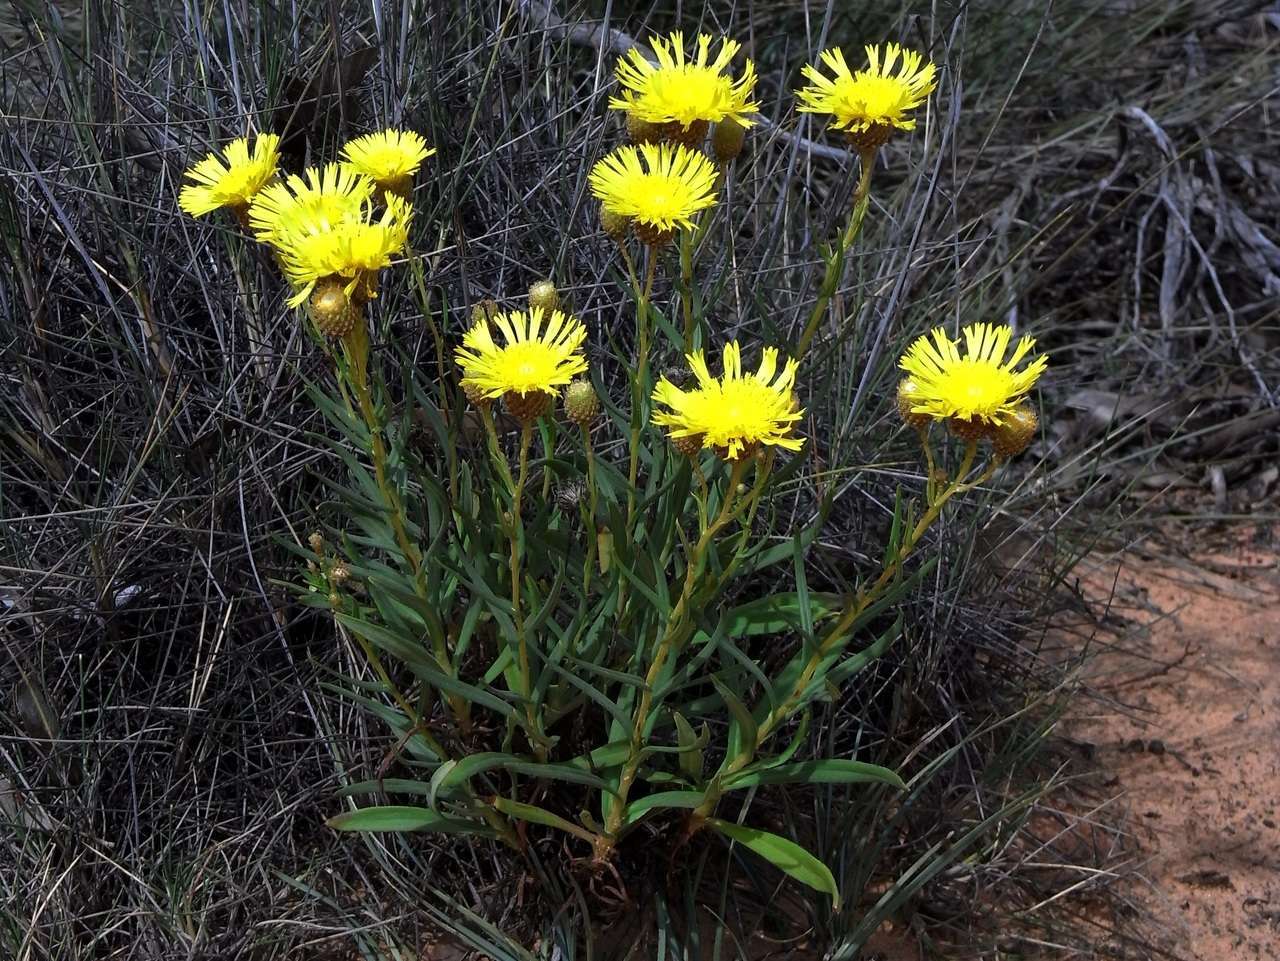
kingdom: Plantae
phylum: Tracheophyta
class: Magnoliopsida
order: Asterales
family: Asteraceae
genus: Podolepis
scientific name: Podolepis rugata
